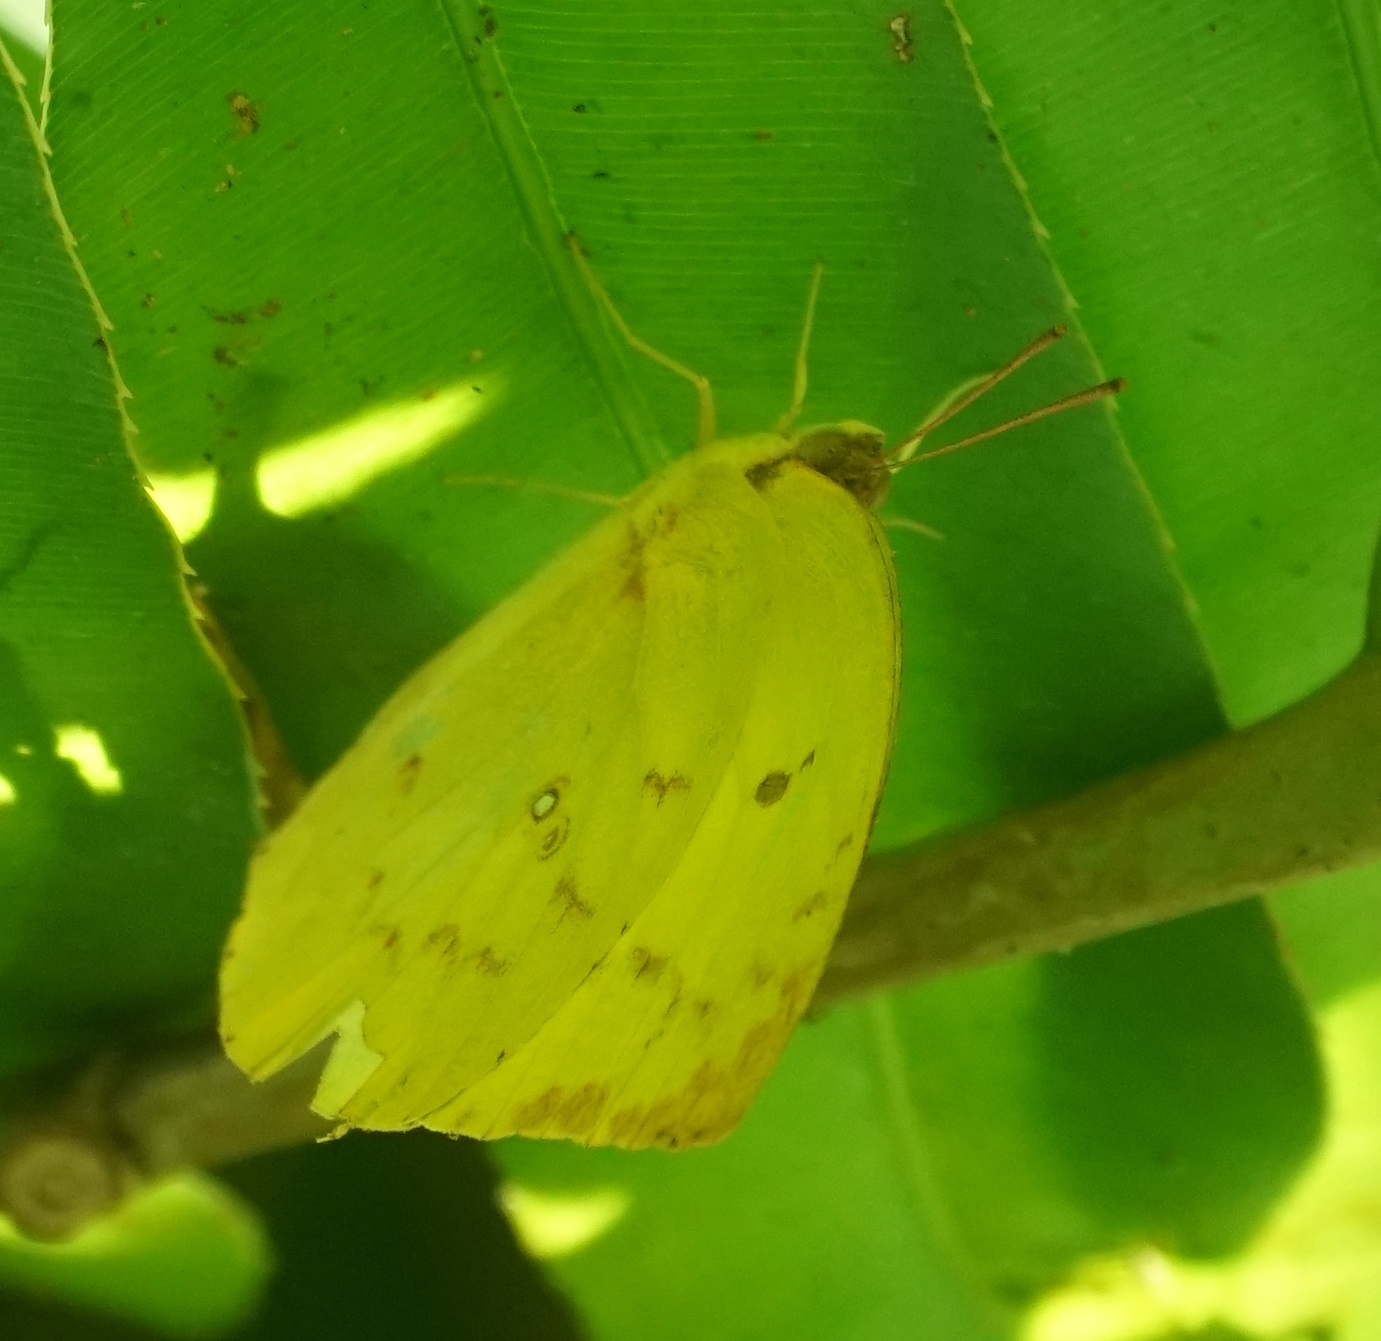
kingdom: Animalia
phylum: Arthropoda
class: Insecta
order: Lepidoptera
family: Pieridae
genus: Catopsilia
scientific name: Catopsilia pomona
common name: Common emigrant
